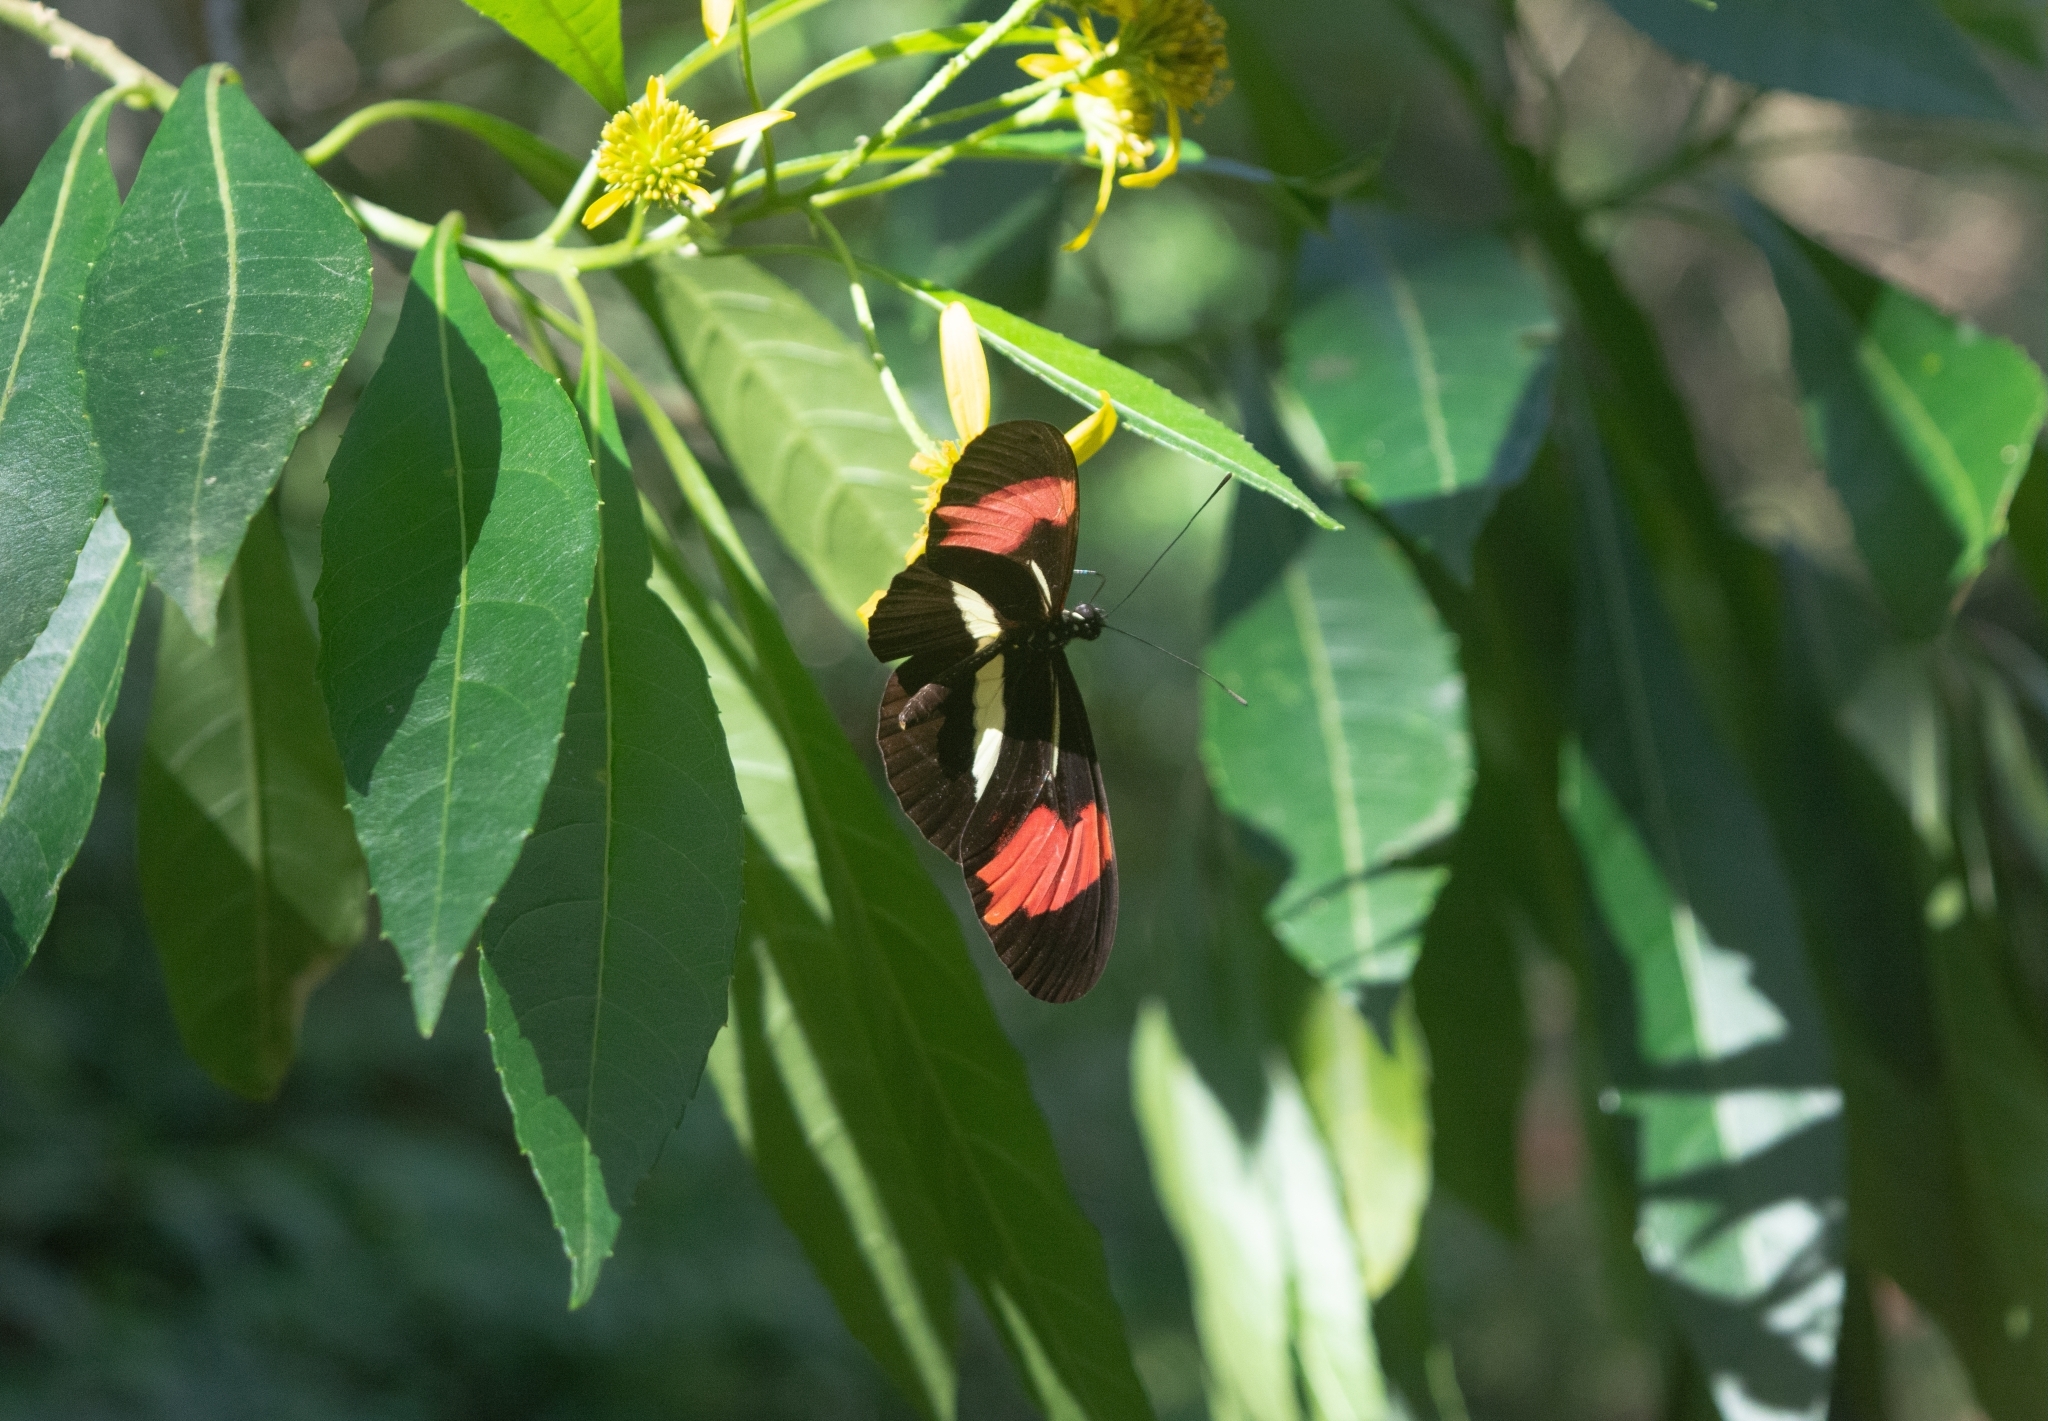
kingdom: Animalia
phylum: Arthropoda
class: Insecta
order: Lepidoptera
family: Nymphalidae
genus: Heliconius
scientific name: Heliconius erato
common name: Common patch longwing
